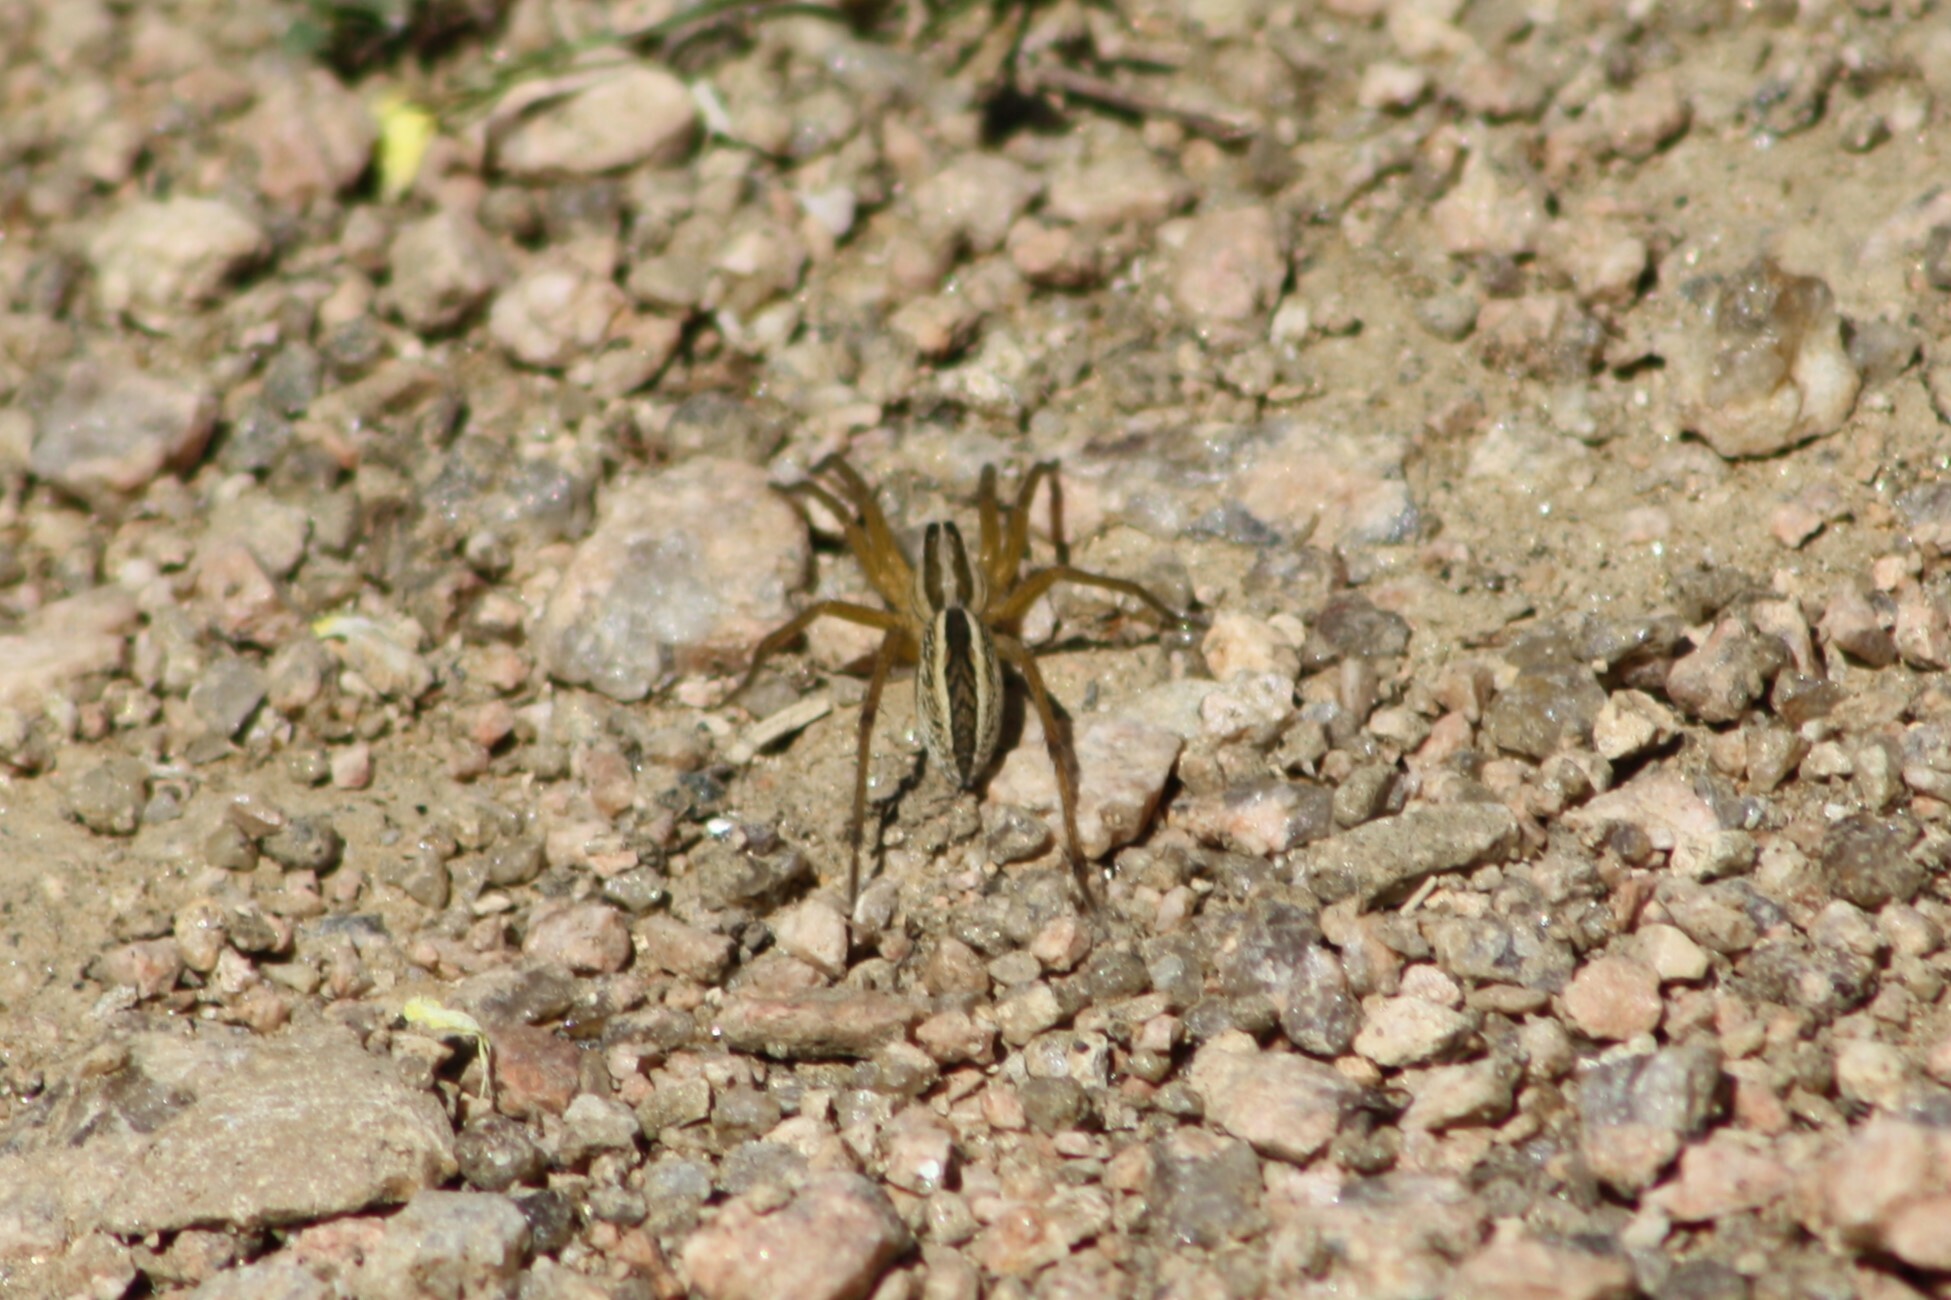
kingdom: Animalia
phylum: Arthropoda
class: Arachnida
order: Araneae
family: Lycosidae
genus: Rabidosa
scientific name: Rabidosa rabida
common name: Rabid wolf spider
